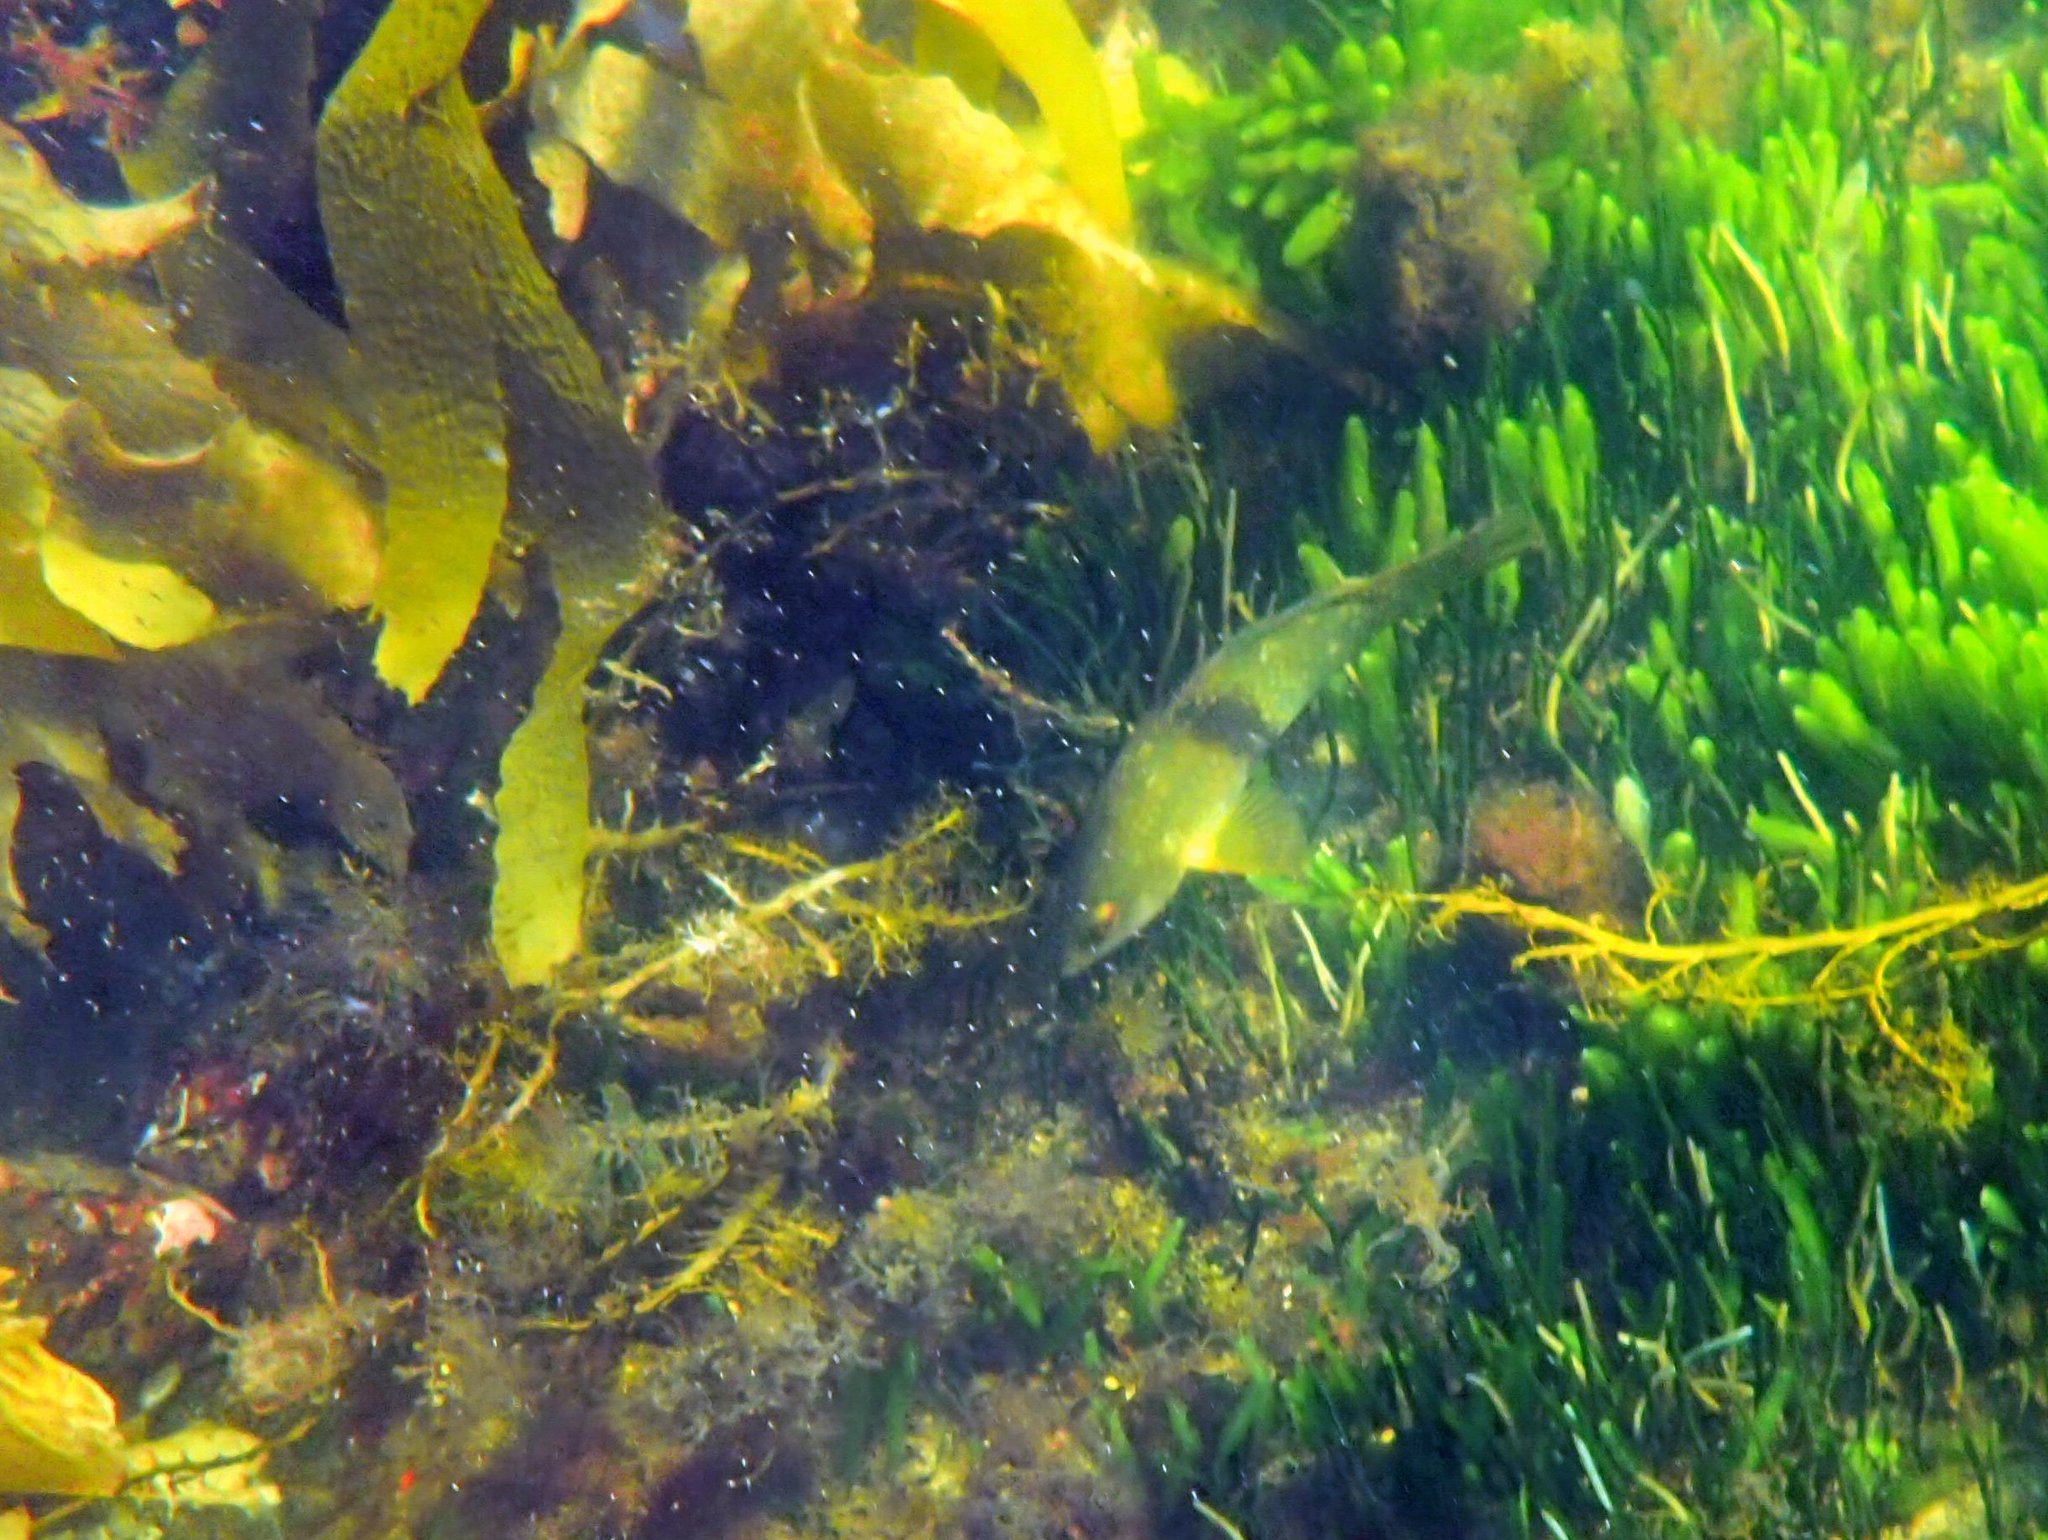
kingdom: Animalia
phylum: Chordata
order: Perciformes
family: Labridae
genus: Notolabrus
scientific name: Notolabrus tetricus
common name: Blue-throated parrotfish
